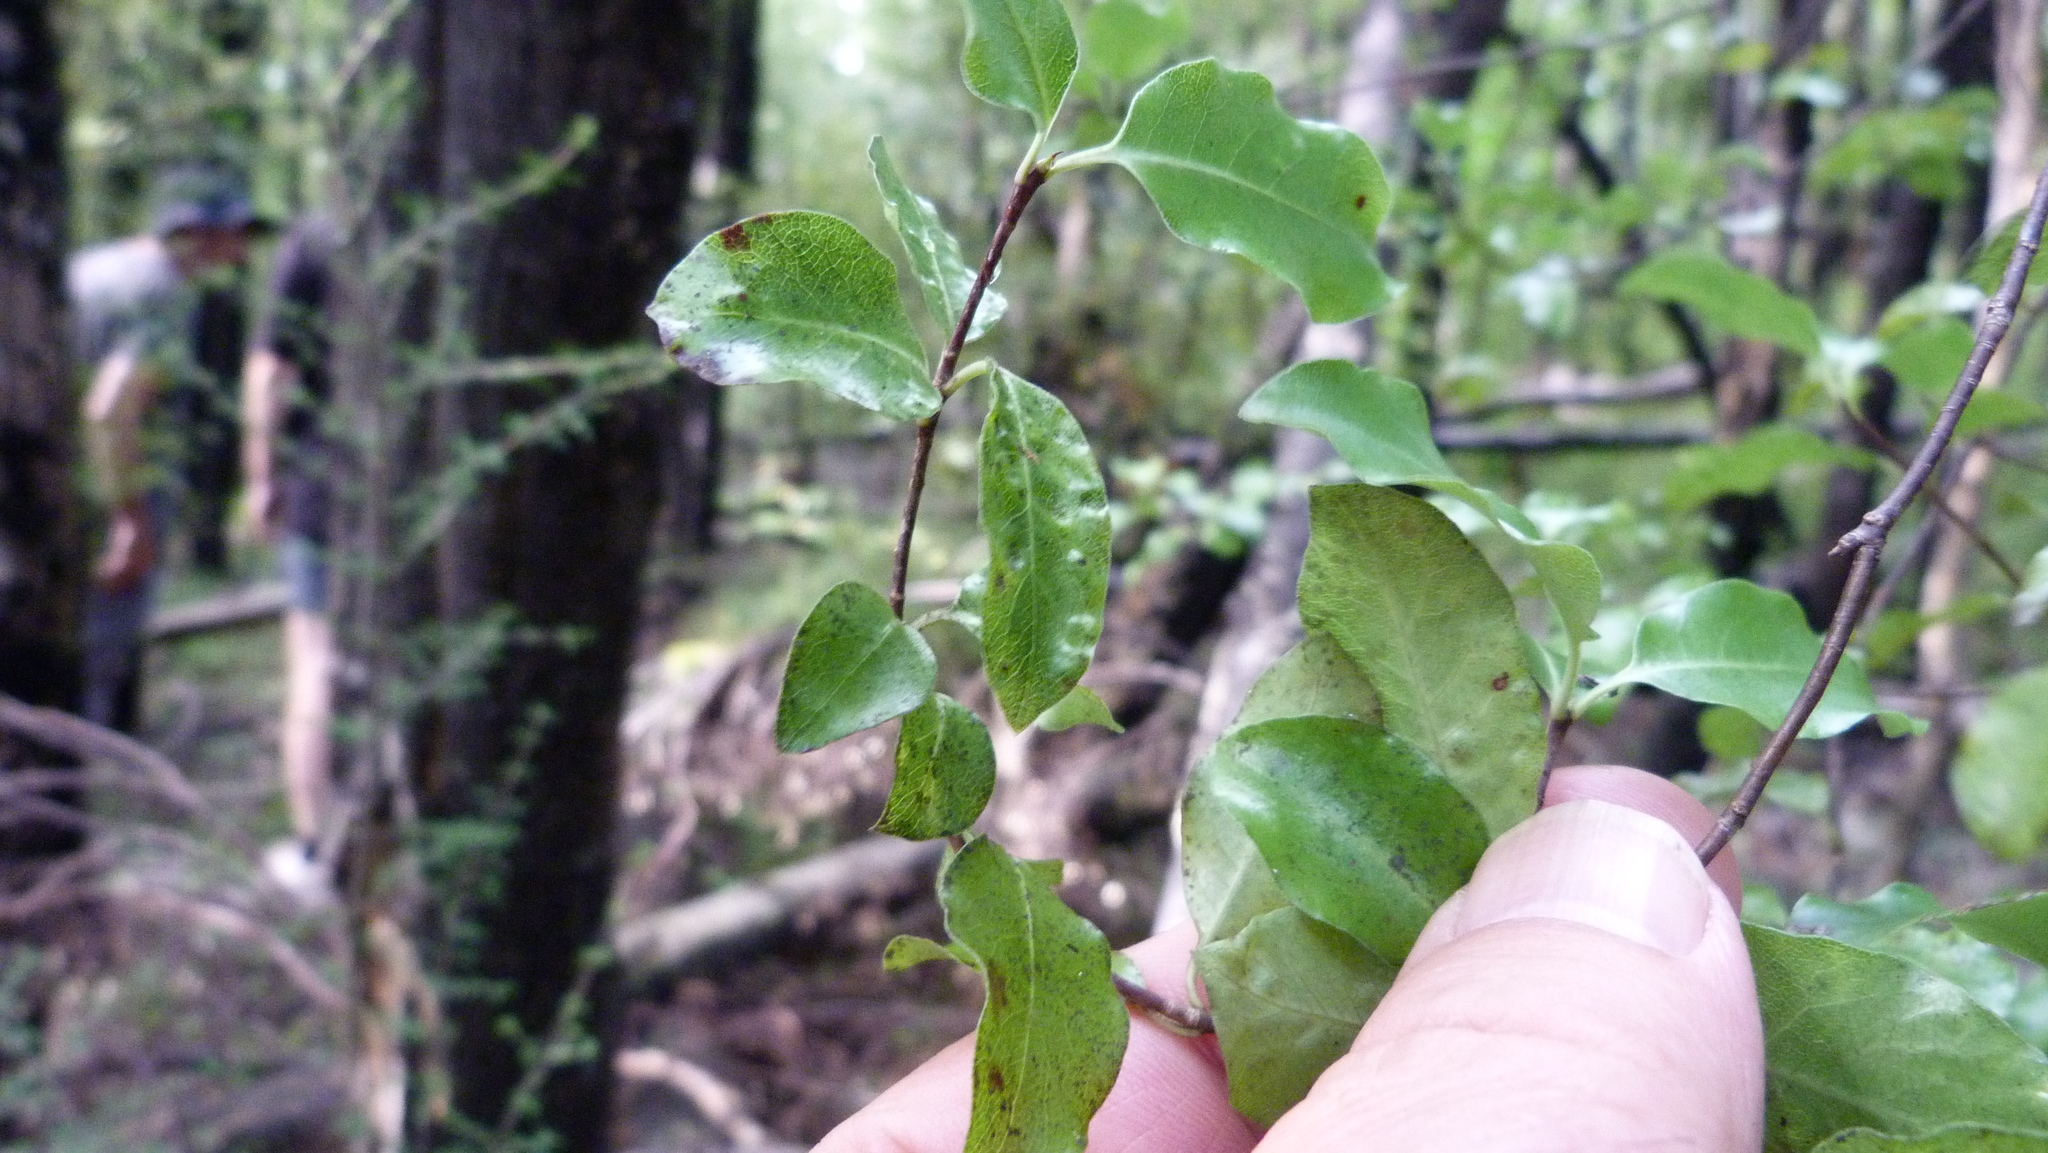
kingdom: Plantae
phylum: Tracheophyta
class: Magnoliopsida
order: Apiales
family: Pittosporaceae
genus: Pittosporum
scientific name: Pittosporum tenuifolium
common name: Kohuhu
